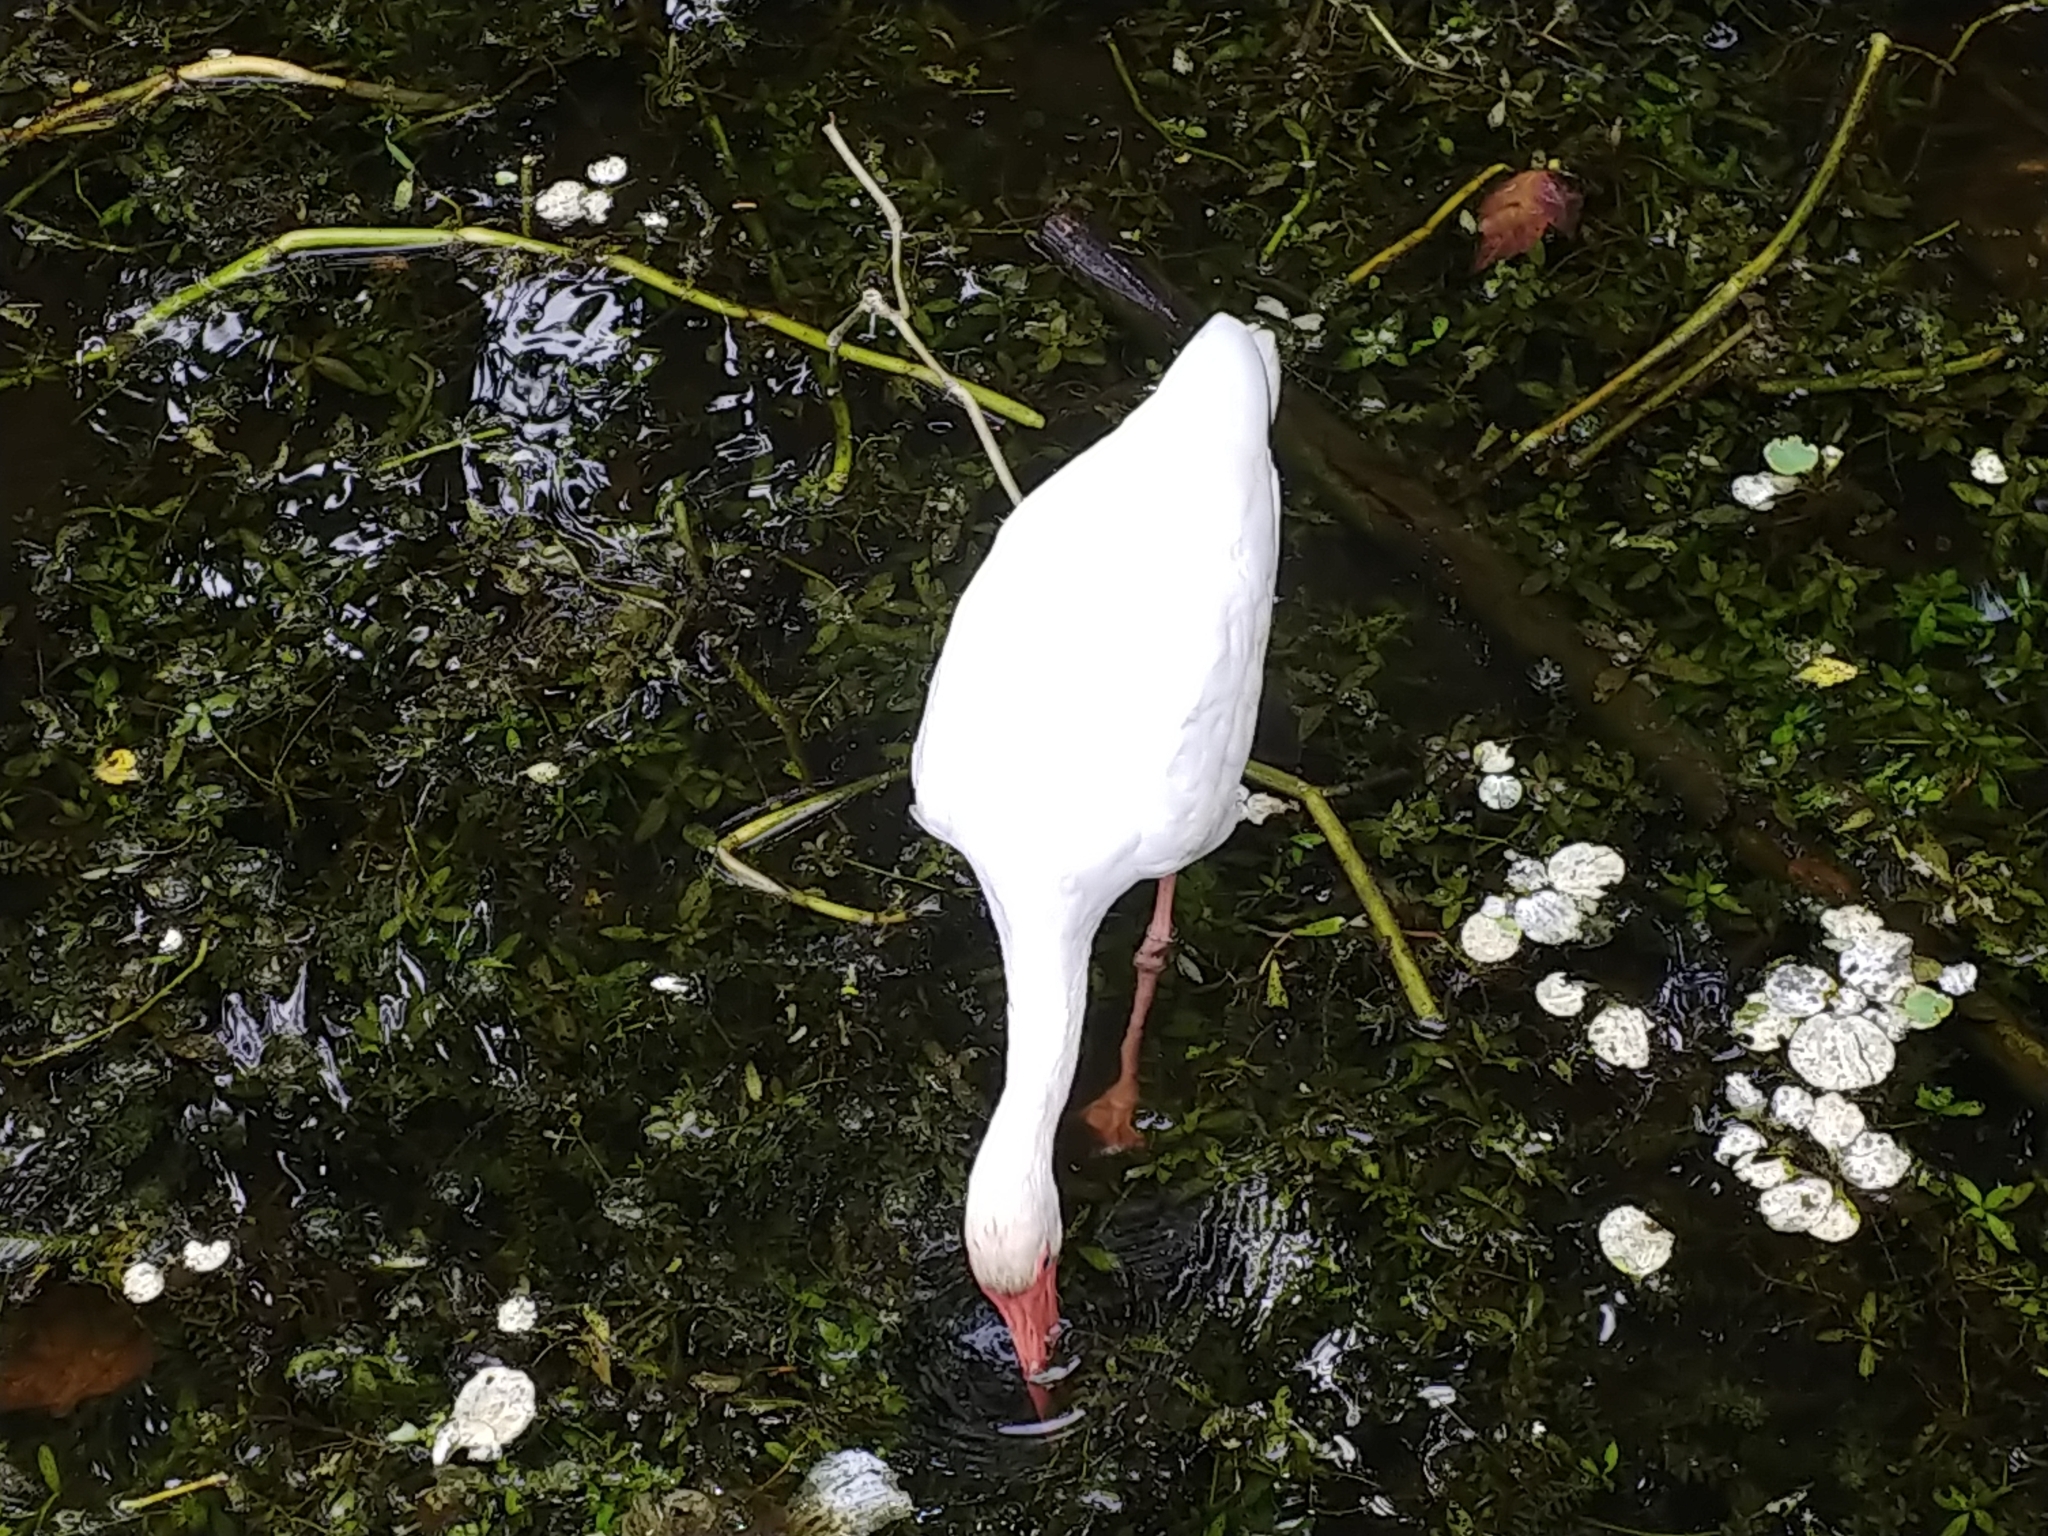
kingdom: Animalia
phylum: Chordata
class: Aves
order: Pelecaniformes
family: Threskiornithidae
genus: Eudocimus
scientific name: Eudocimus albus
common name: White ibis
